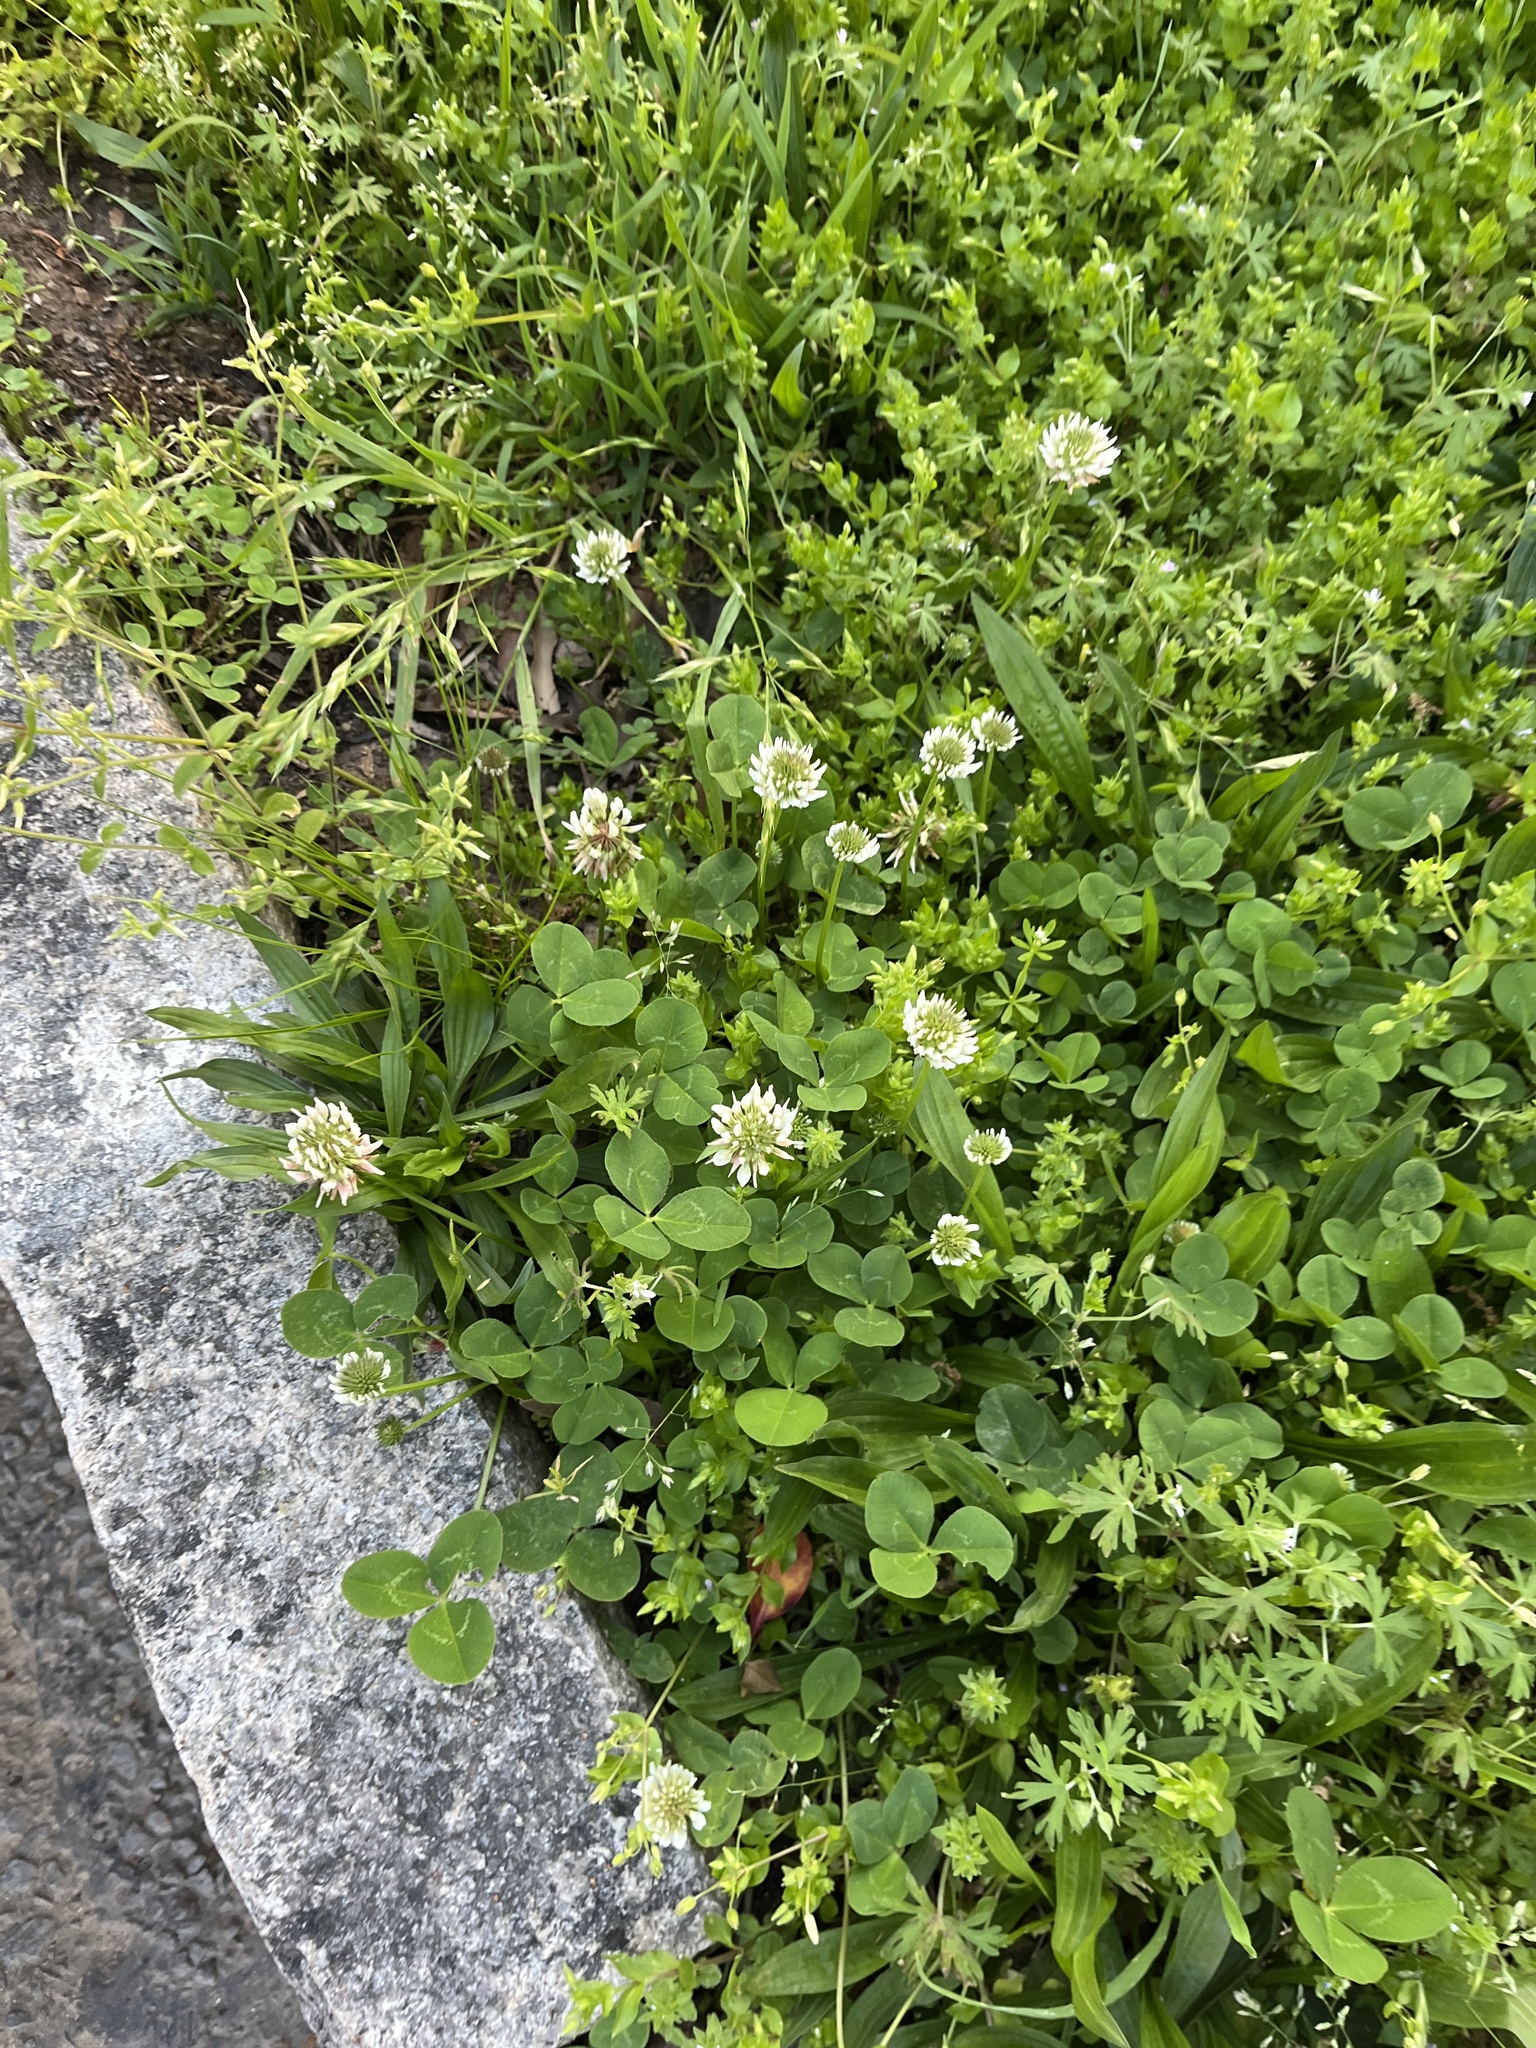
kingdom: Plantae
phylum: Tracheophyta
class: Magnoliopsida
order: Fabales
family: Fabaceae
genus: Trifolium
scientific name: Trifolium repens
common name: White clover
